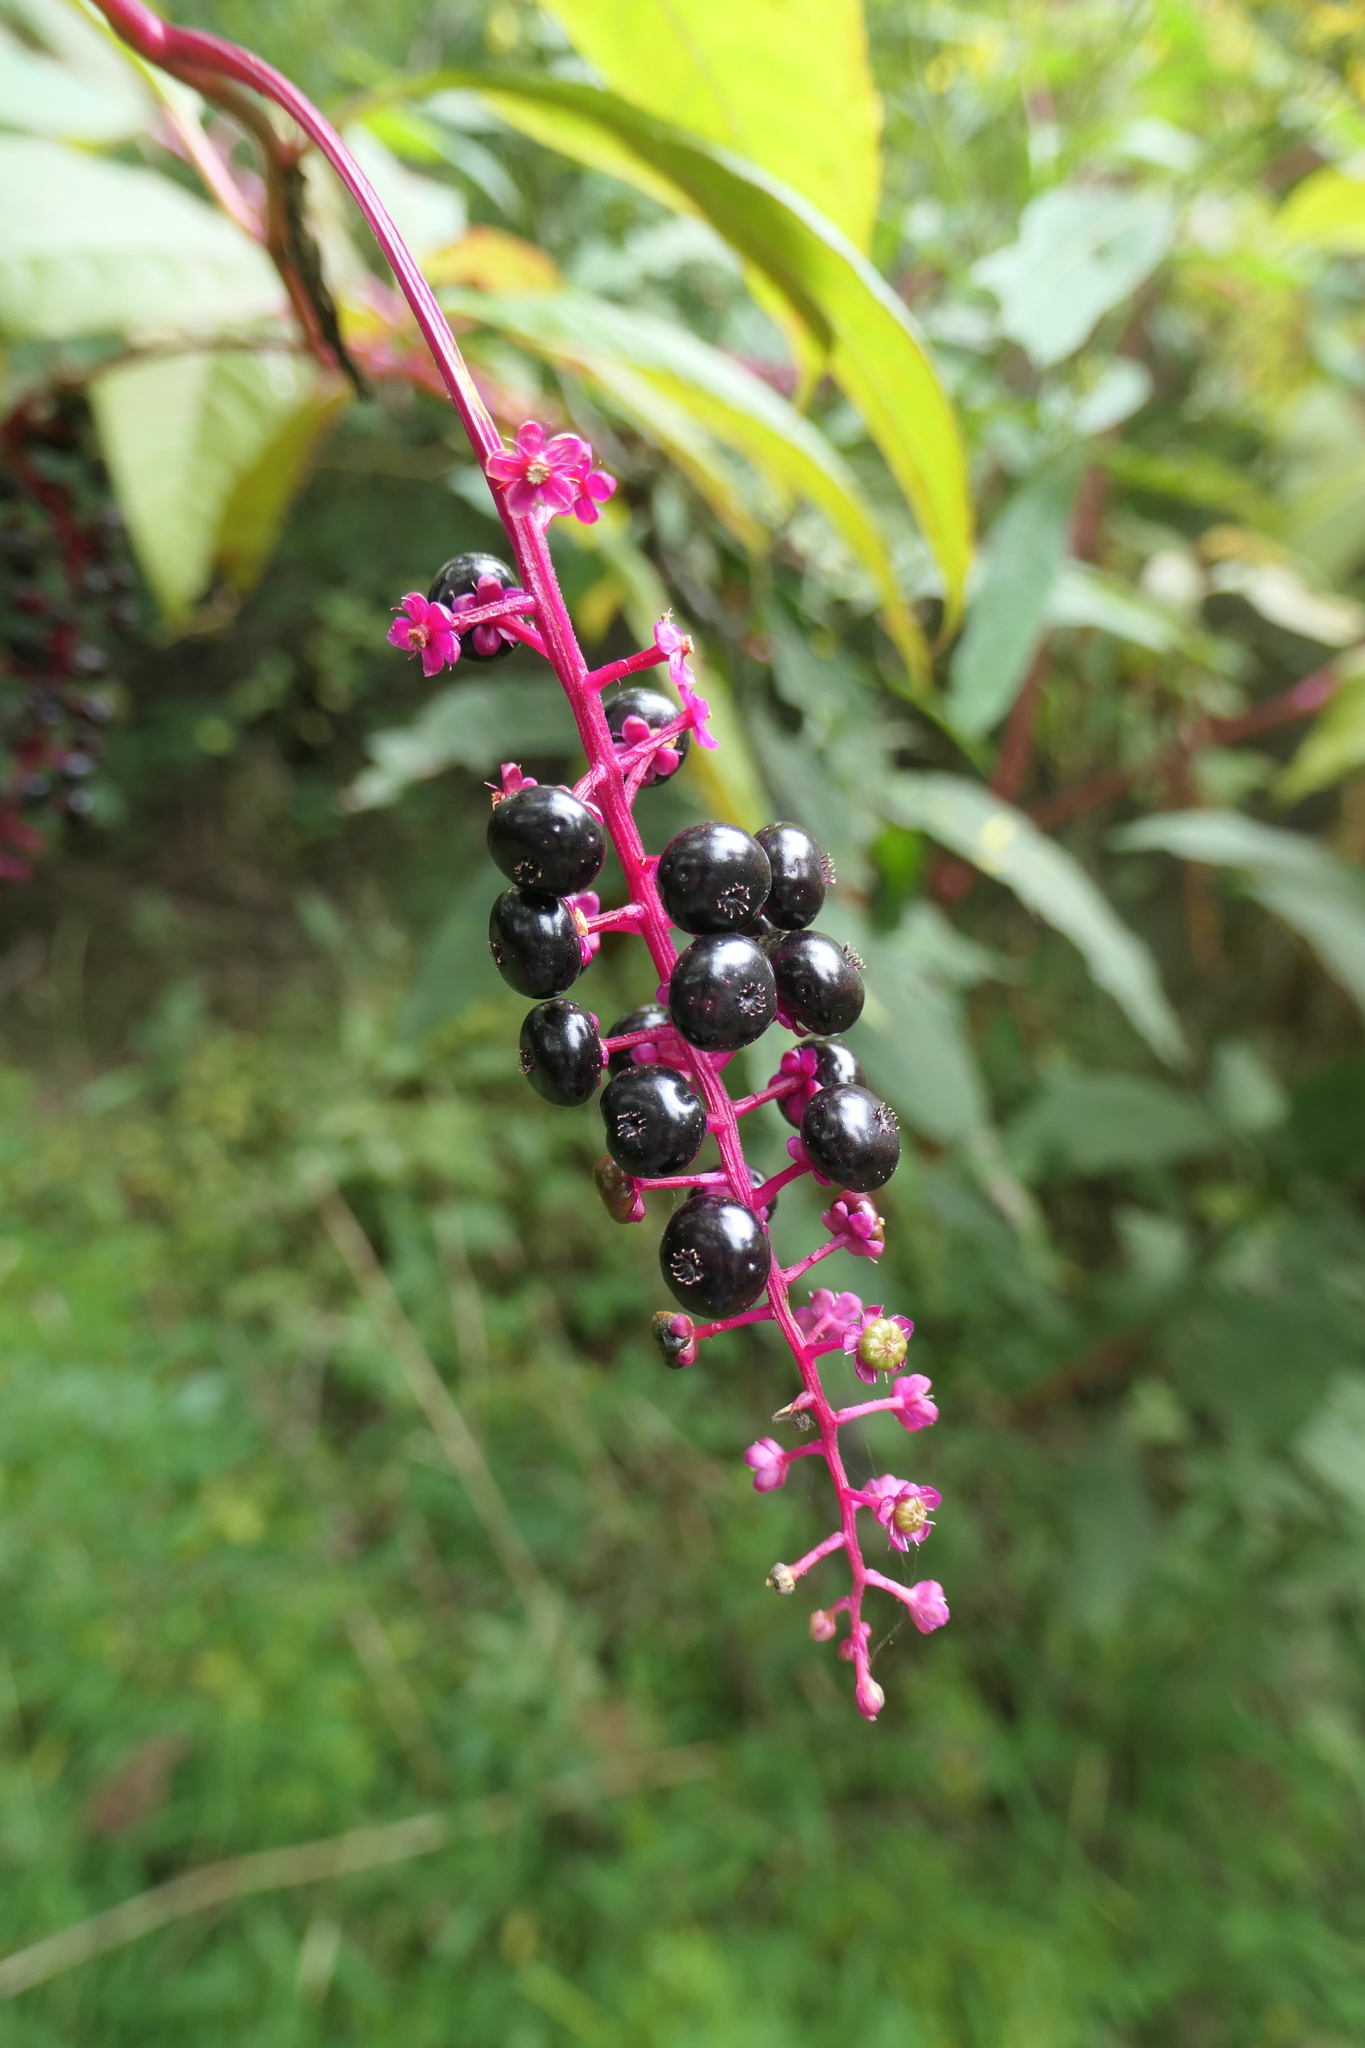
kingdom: Plantae
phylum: Tracheophyta
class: Magnoliopsida
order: Caryophyllales
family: Phytolaccaceae
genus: Phytolacca
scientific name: Phytolacca americana
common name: American pokeweed
